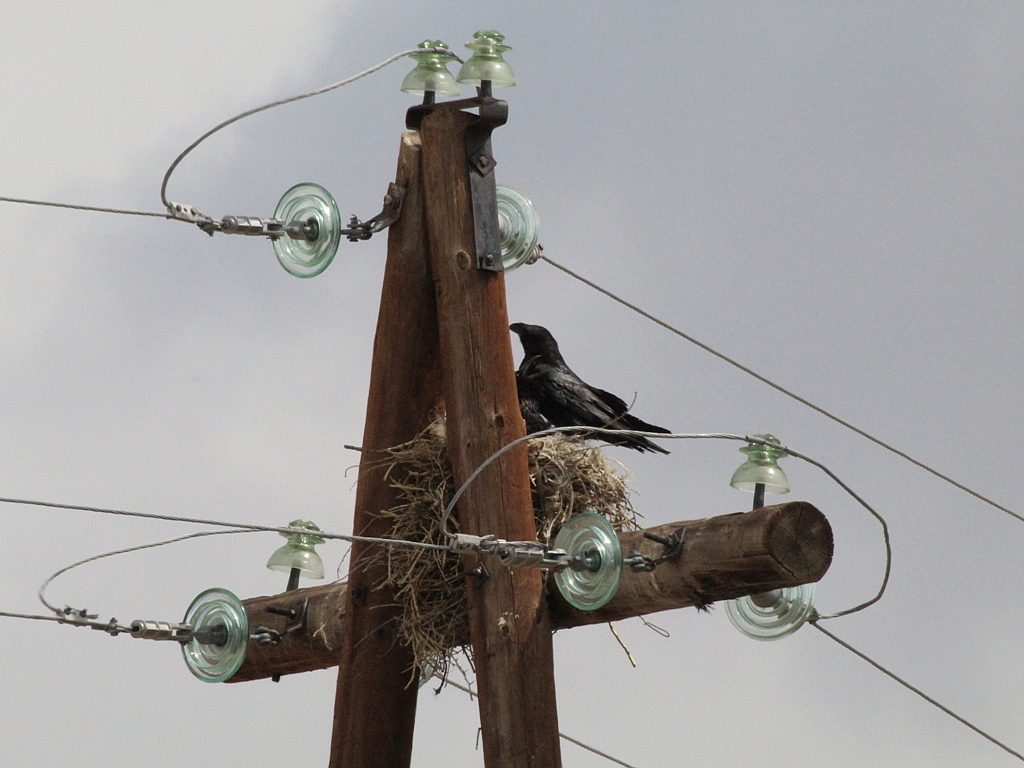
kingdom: Animalia
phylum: Chordata
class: Aves
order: Passeriformes
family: Corvidae
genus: Corvus
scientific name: Corvus corax
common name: Common raven
